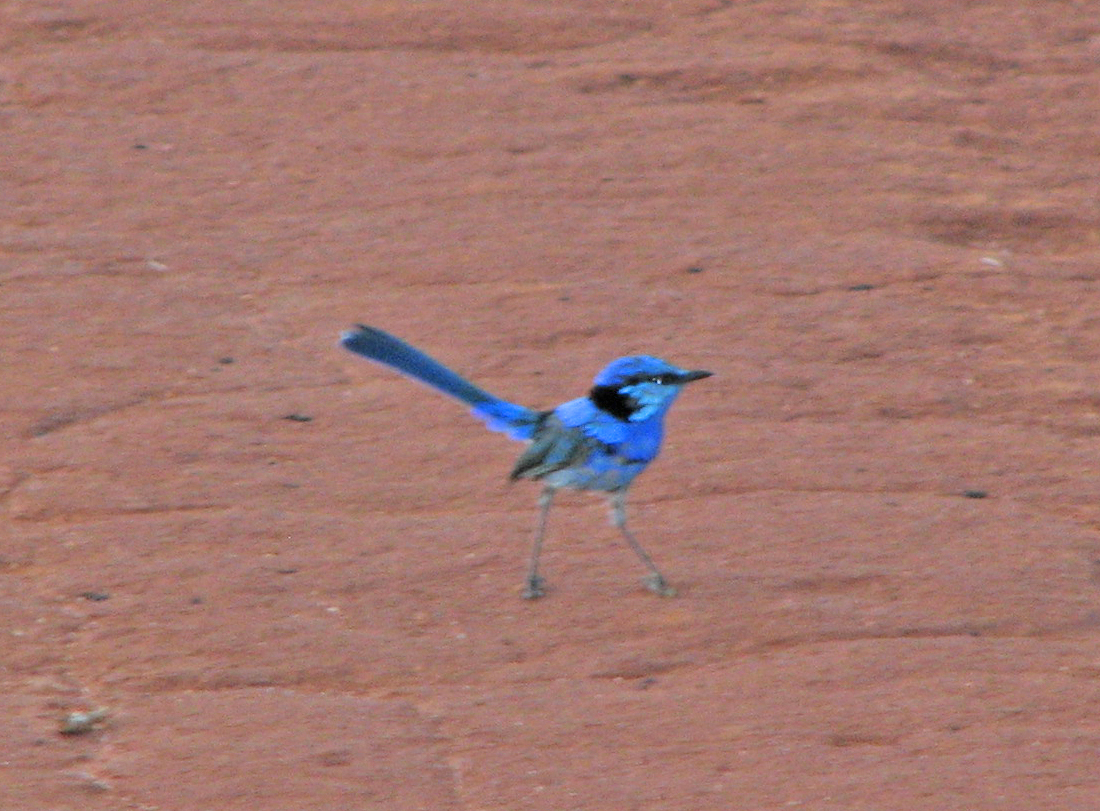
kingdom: Animalia
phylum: Chordata
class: Aves
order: Passeriformes
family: Maluridae
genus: Malurus
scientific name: Malurus splendens
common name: Splendid fairywren
